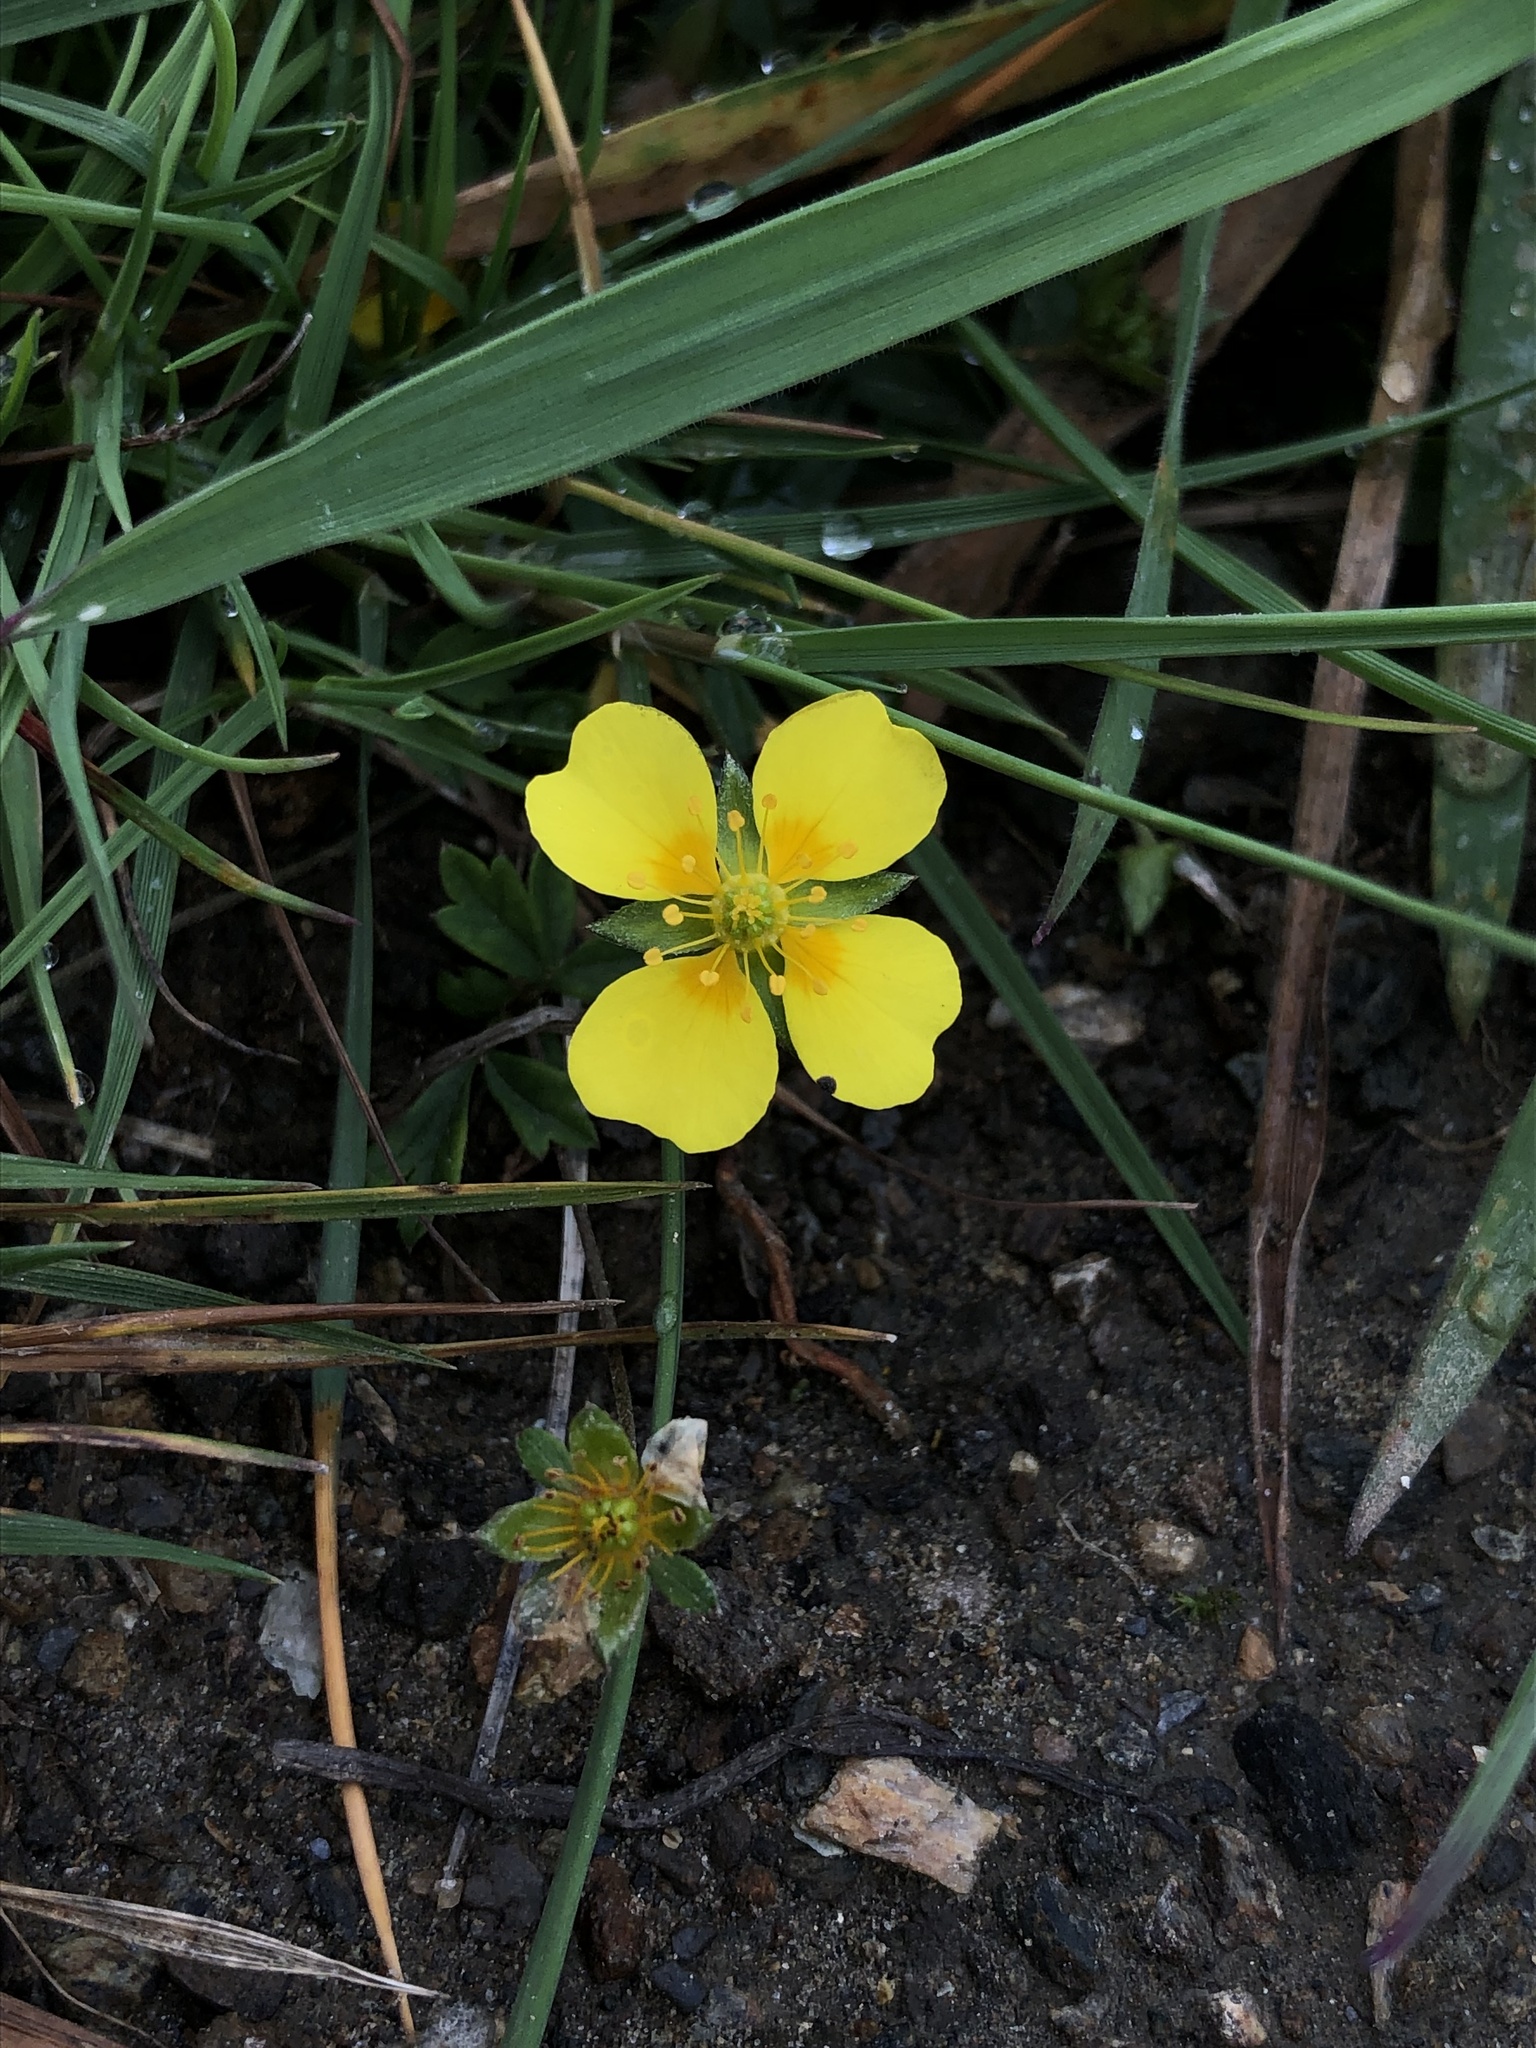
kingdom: Plantae
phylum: Tracheophyta
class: Magnoliopsida
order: Rosales
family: Rosaceae
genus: Potentilla
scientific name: Potentilla erecta
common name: Tormentil
